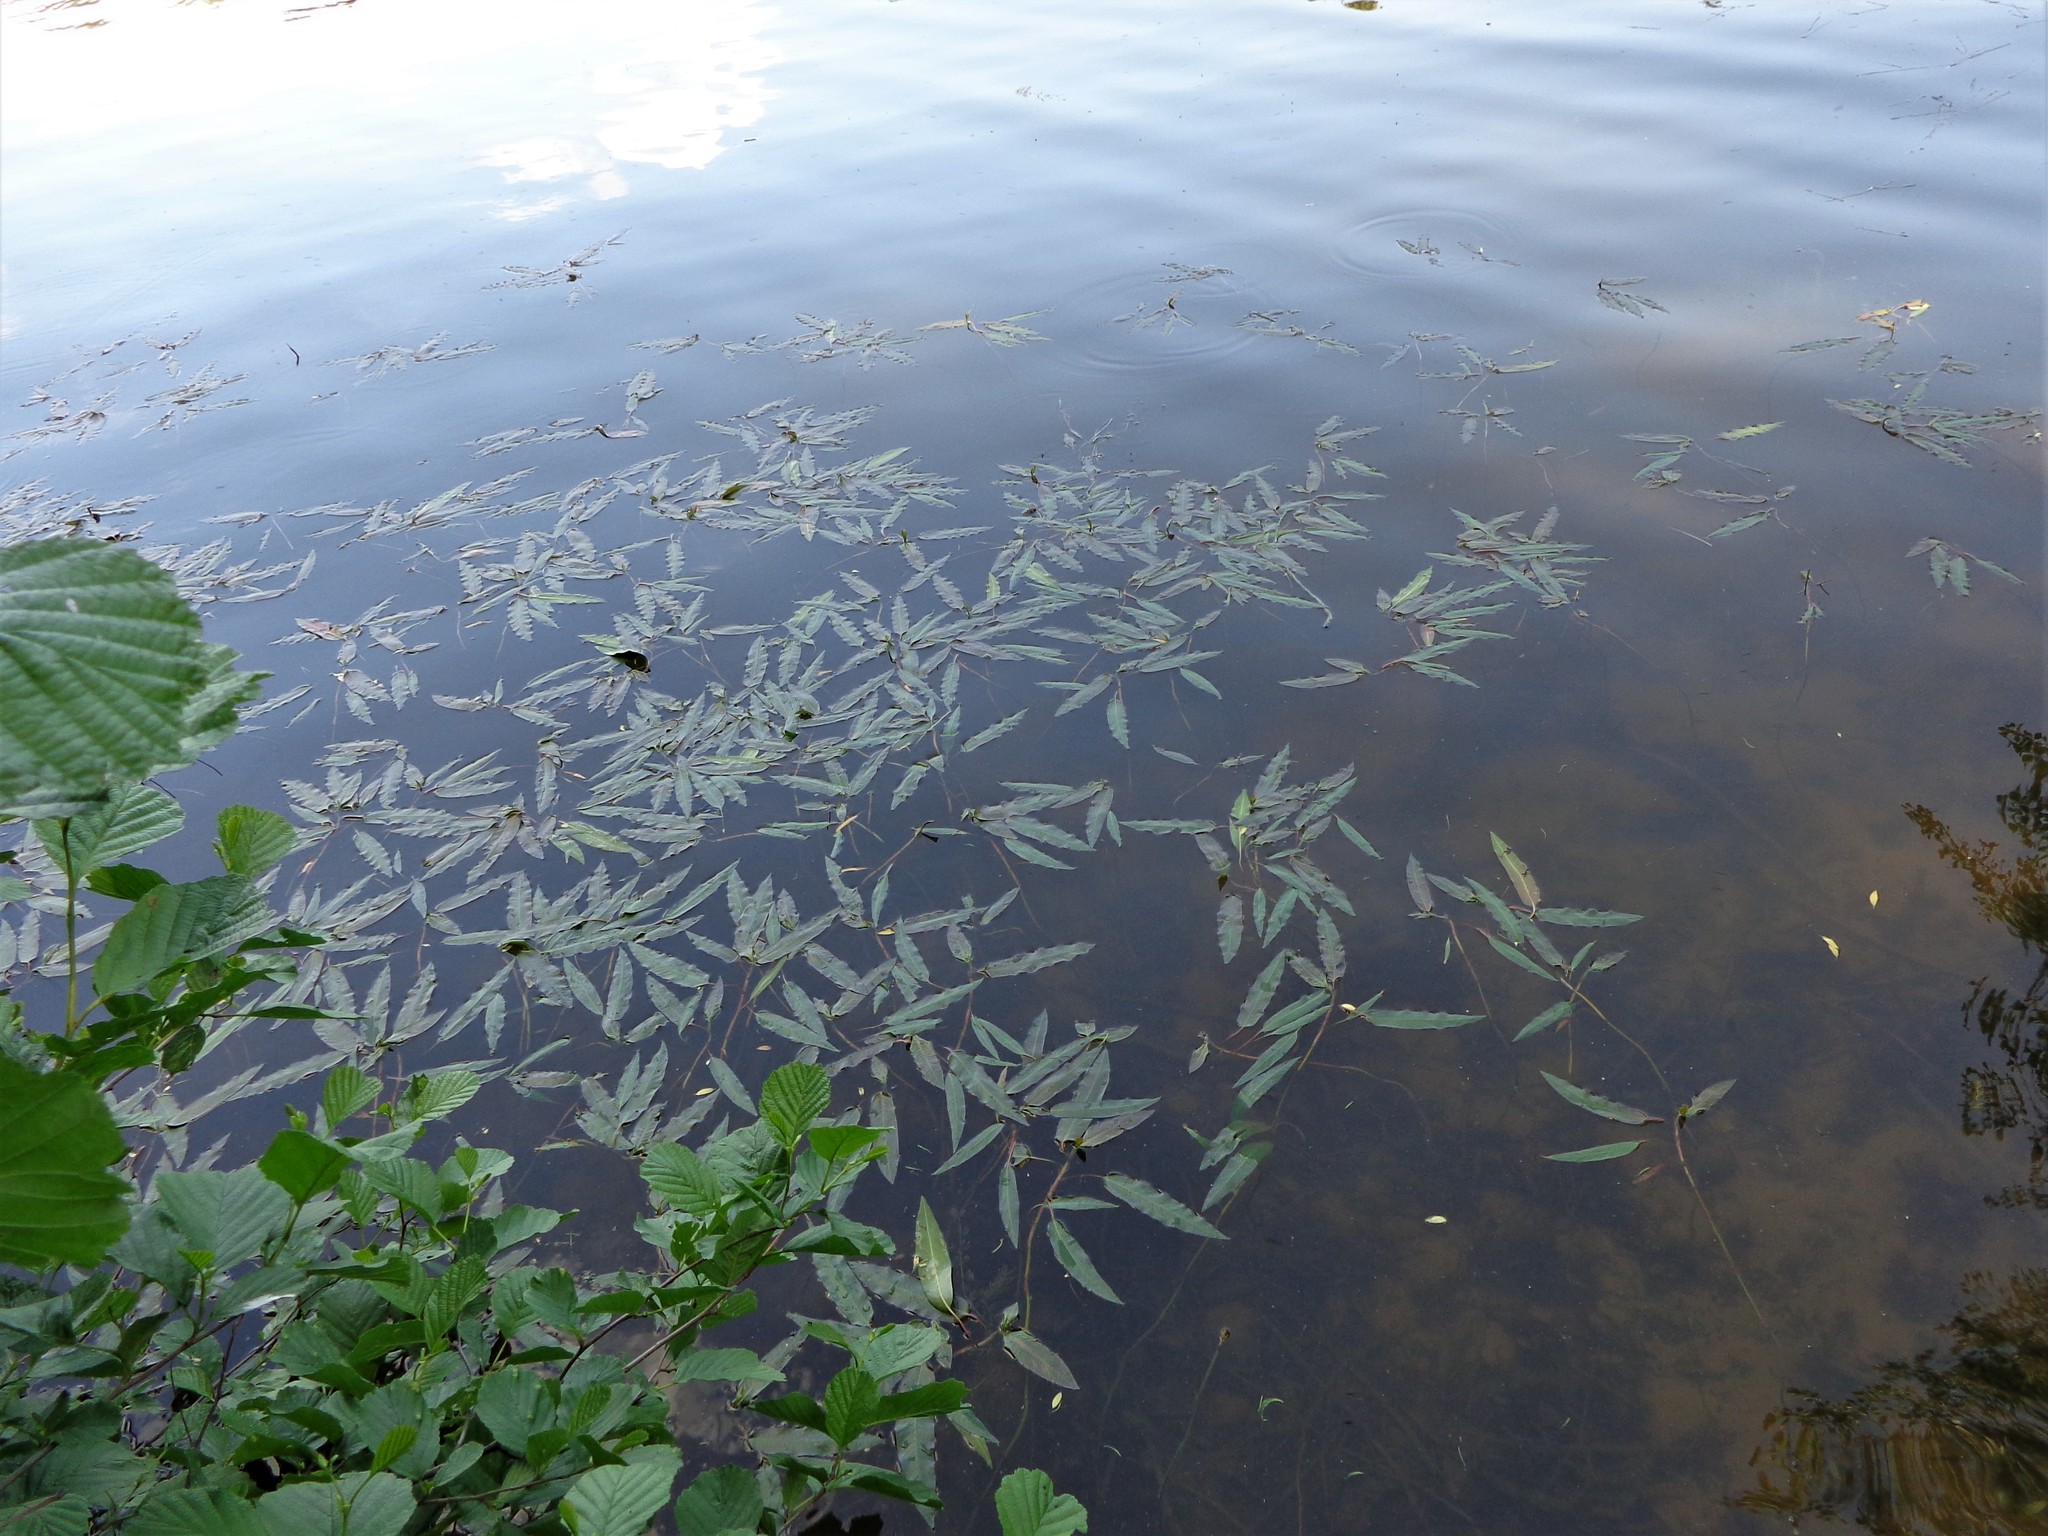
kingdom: Plantae
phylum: Tracheophyta
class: Magnoliopsida
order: Caryophyllales
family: Polygonaceae
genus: Persicaria
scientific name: Persicaria amphibia
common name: Amphibious bistort
